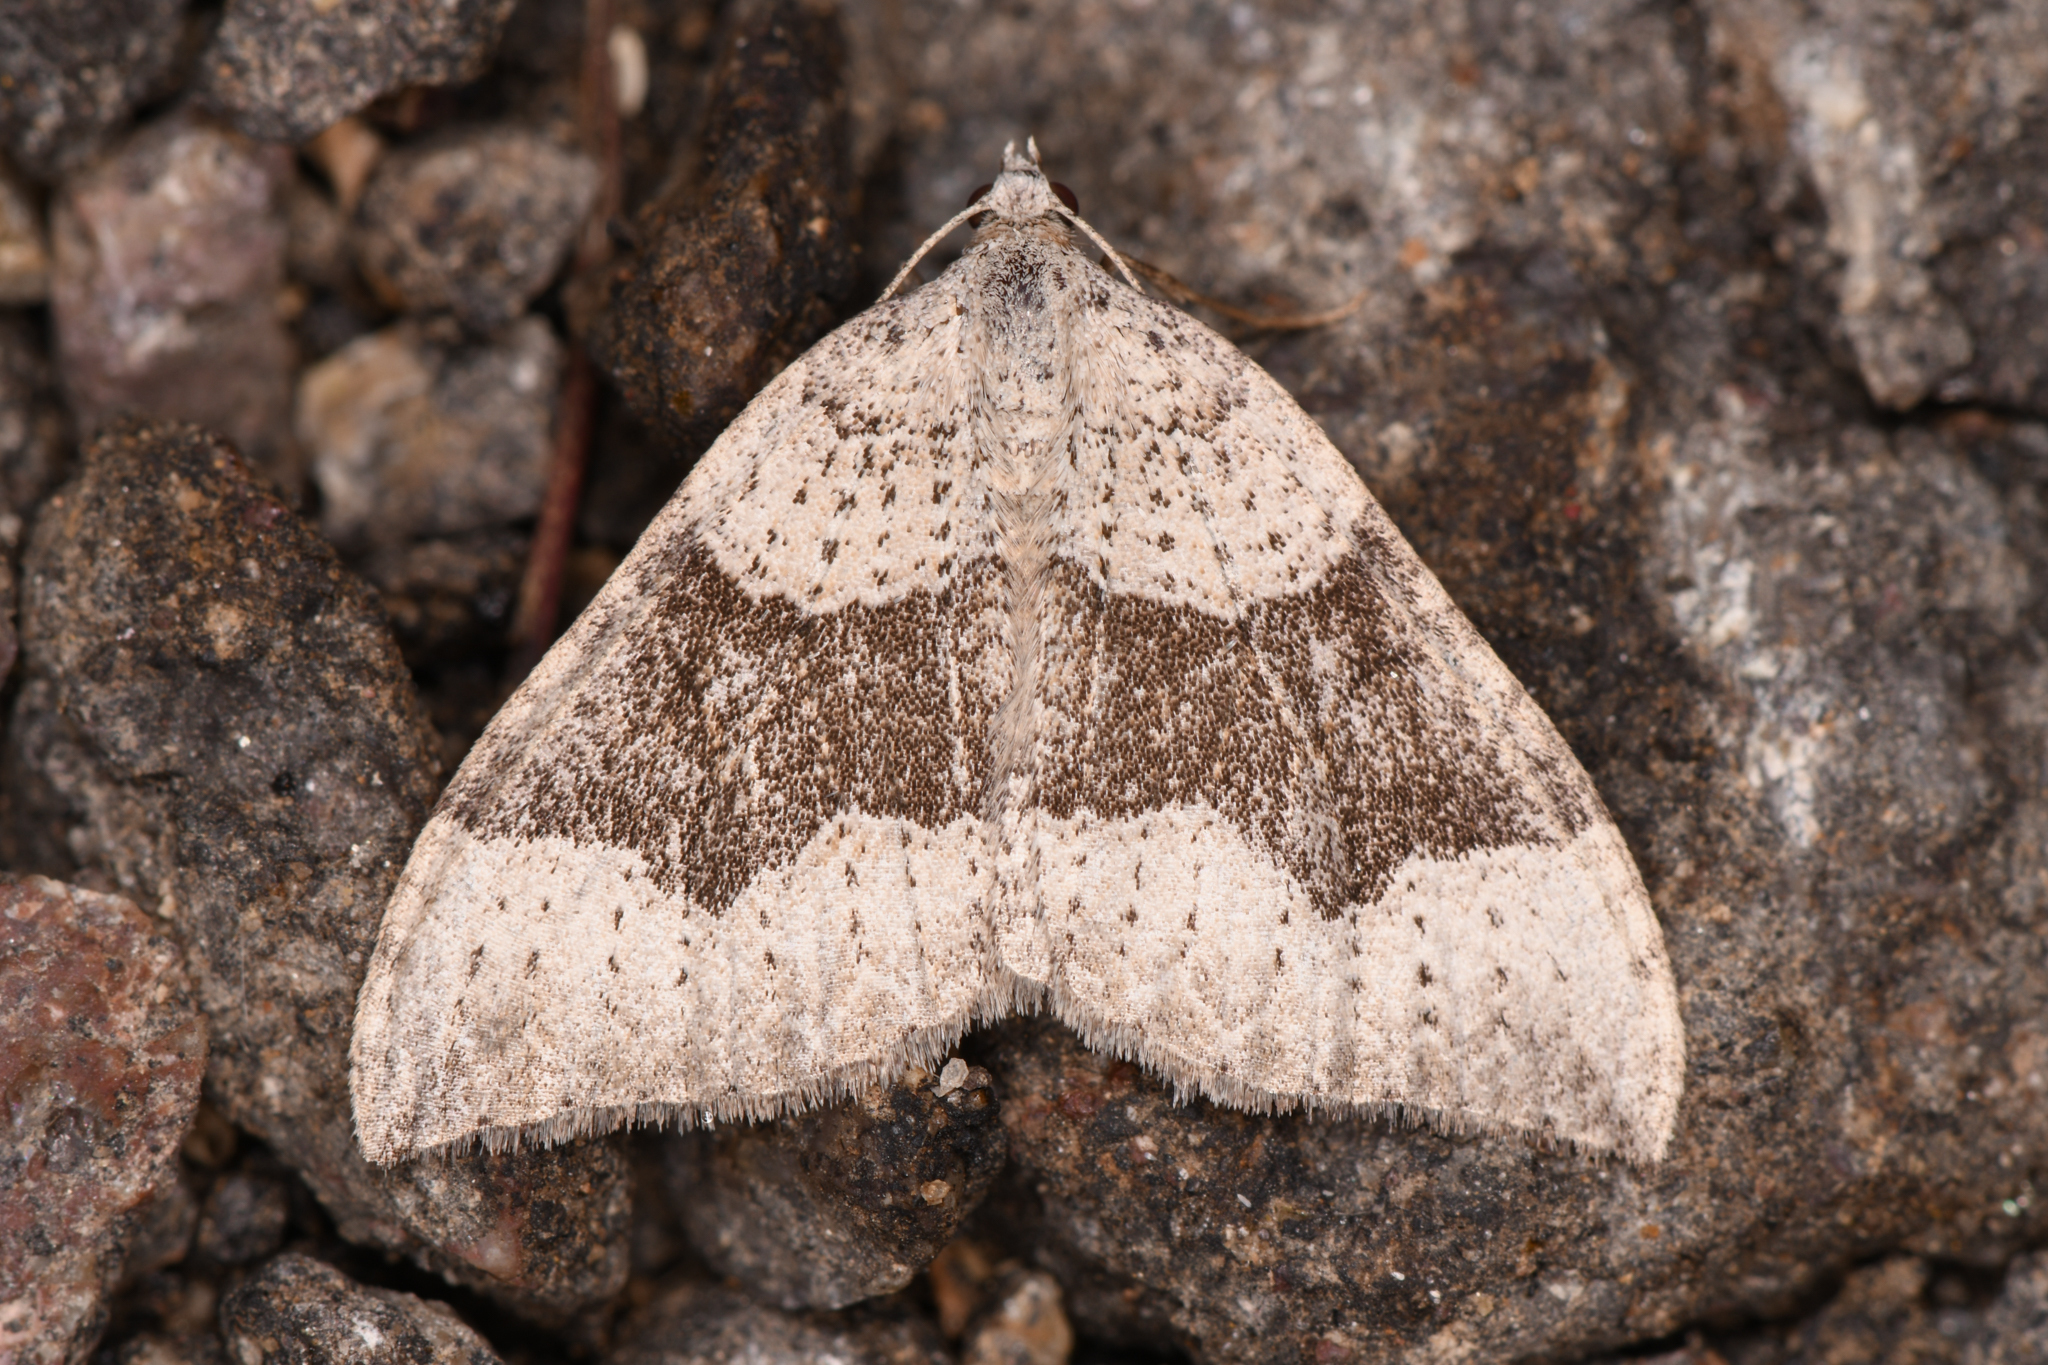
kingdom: Animalia
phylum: Arthropoda
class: Insecta
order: Lepidoptera
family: Geometridae
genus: Zenophleps
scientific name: Zenophleps lignicolorata
